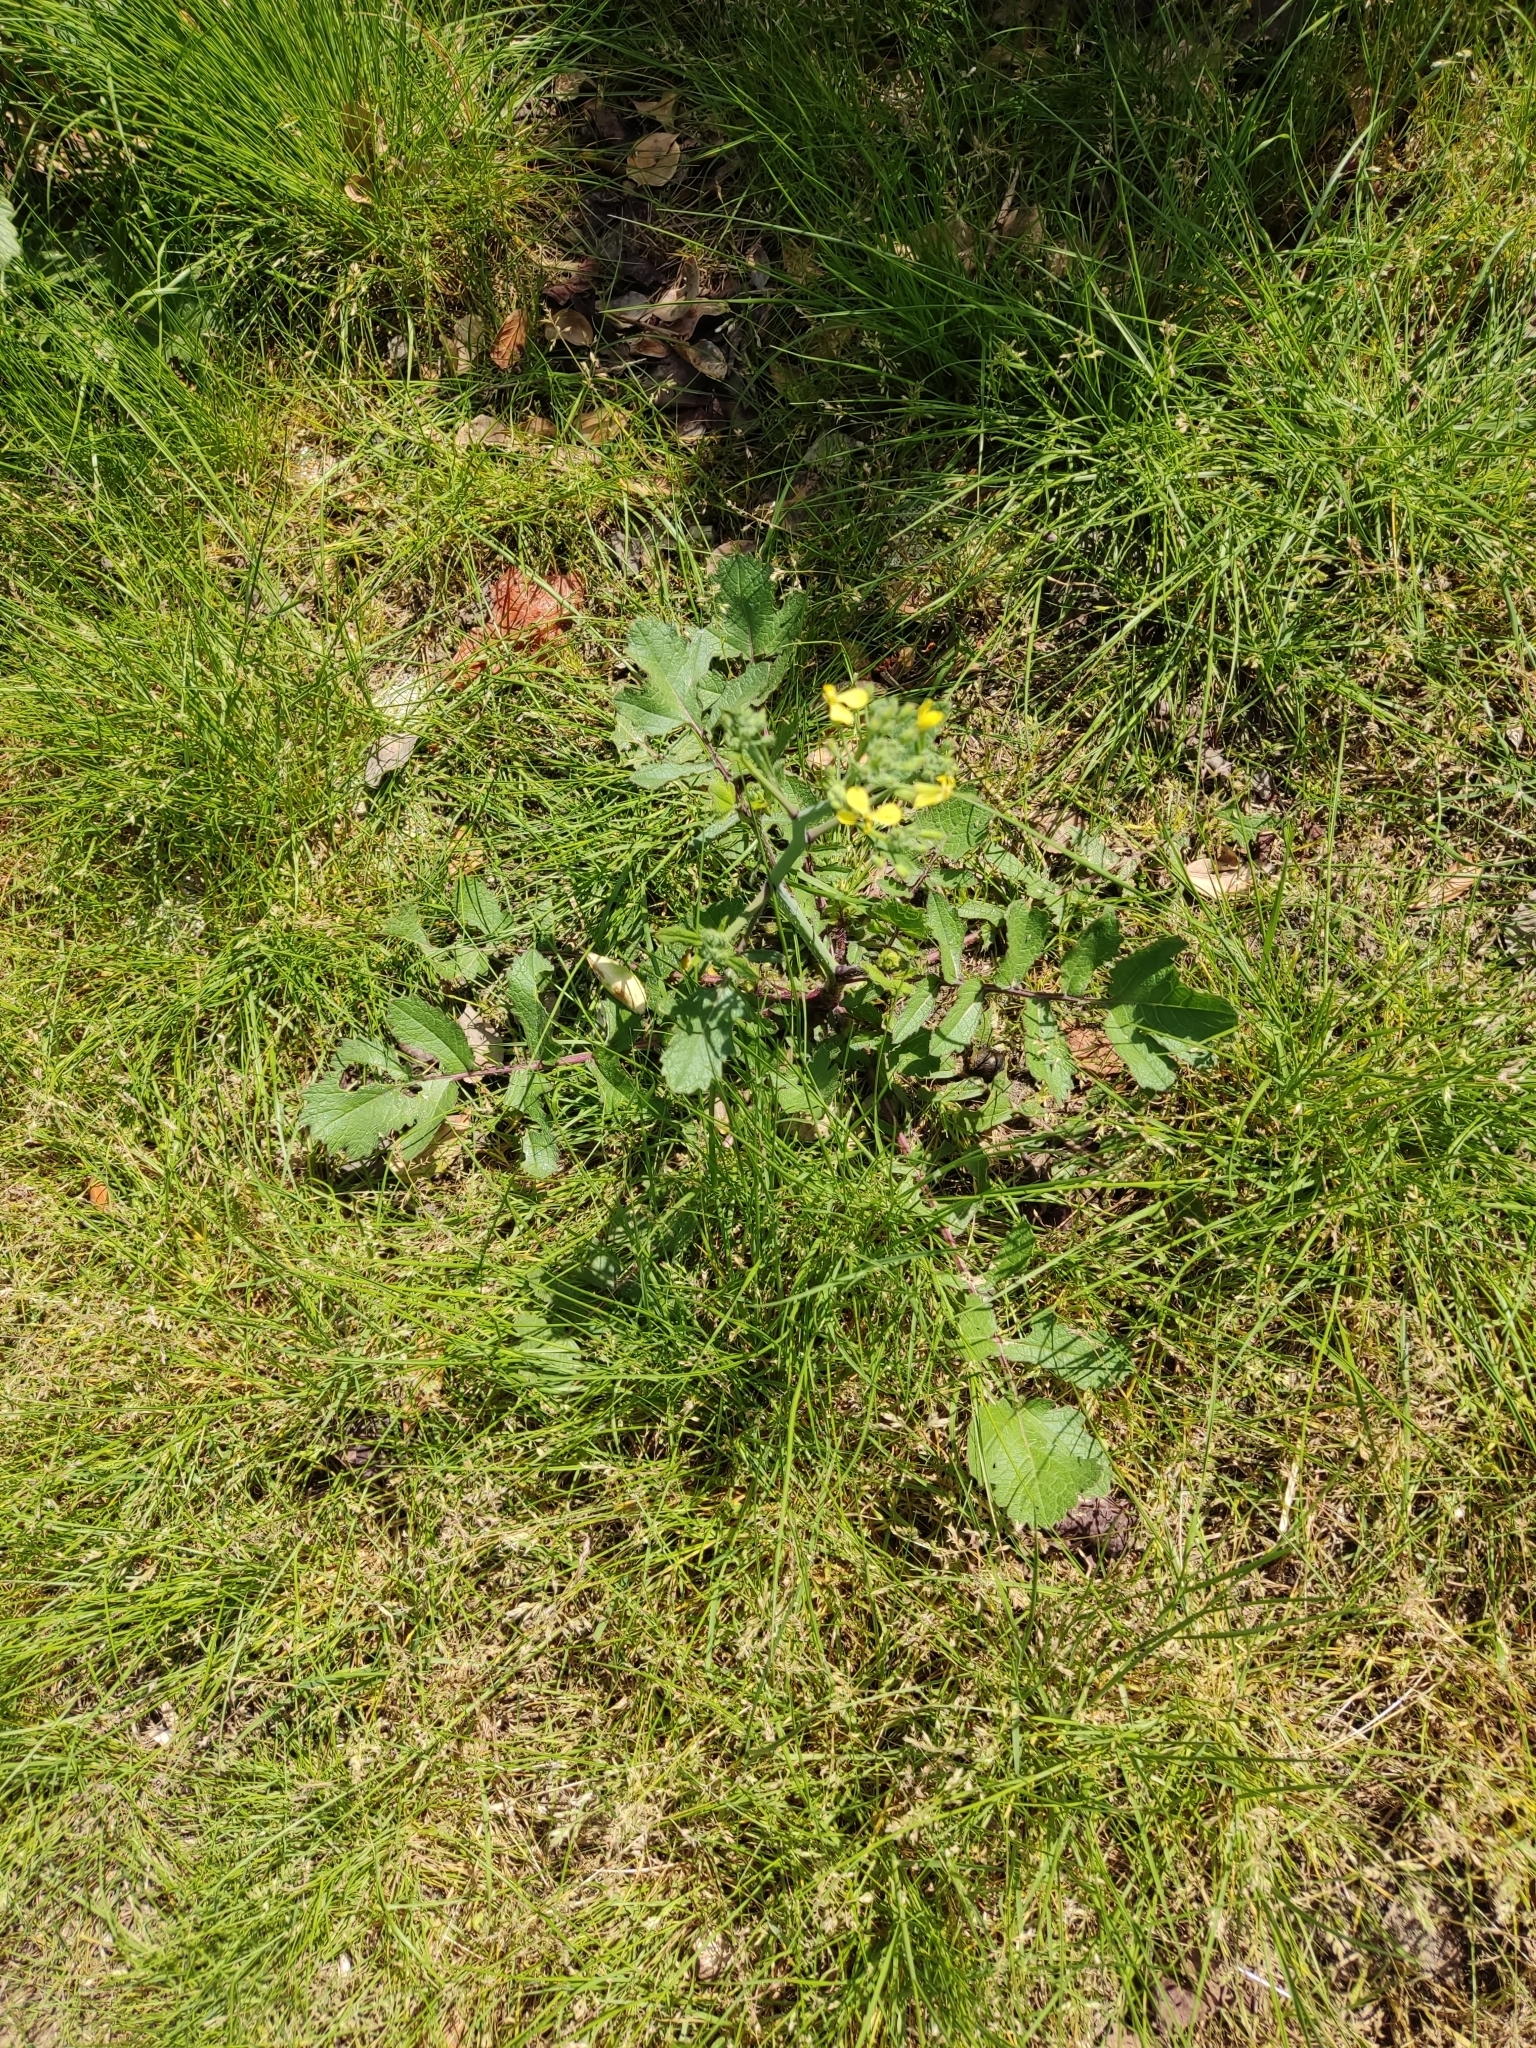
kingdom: Plantae
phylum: Tracheophyta
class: Magnoliopsida
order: Brassicales
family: Brassicaceae
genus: Raphanus
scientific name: Raphanus raphanistrum
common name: Wild radish
